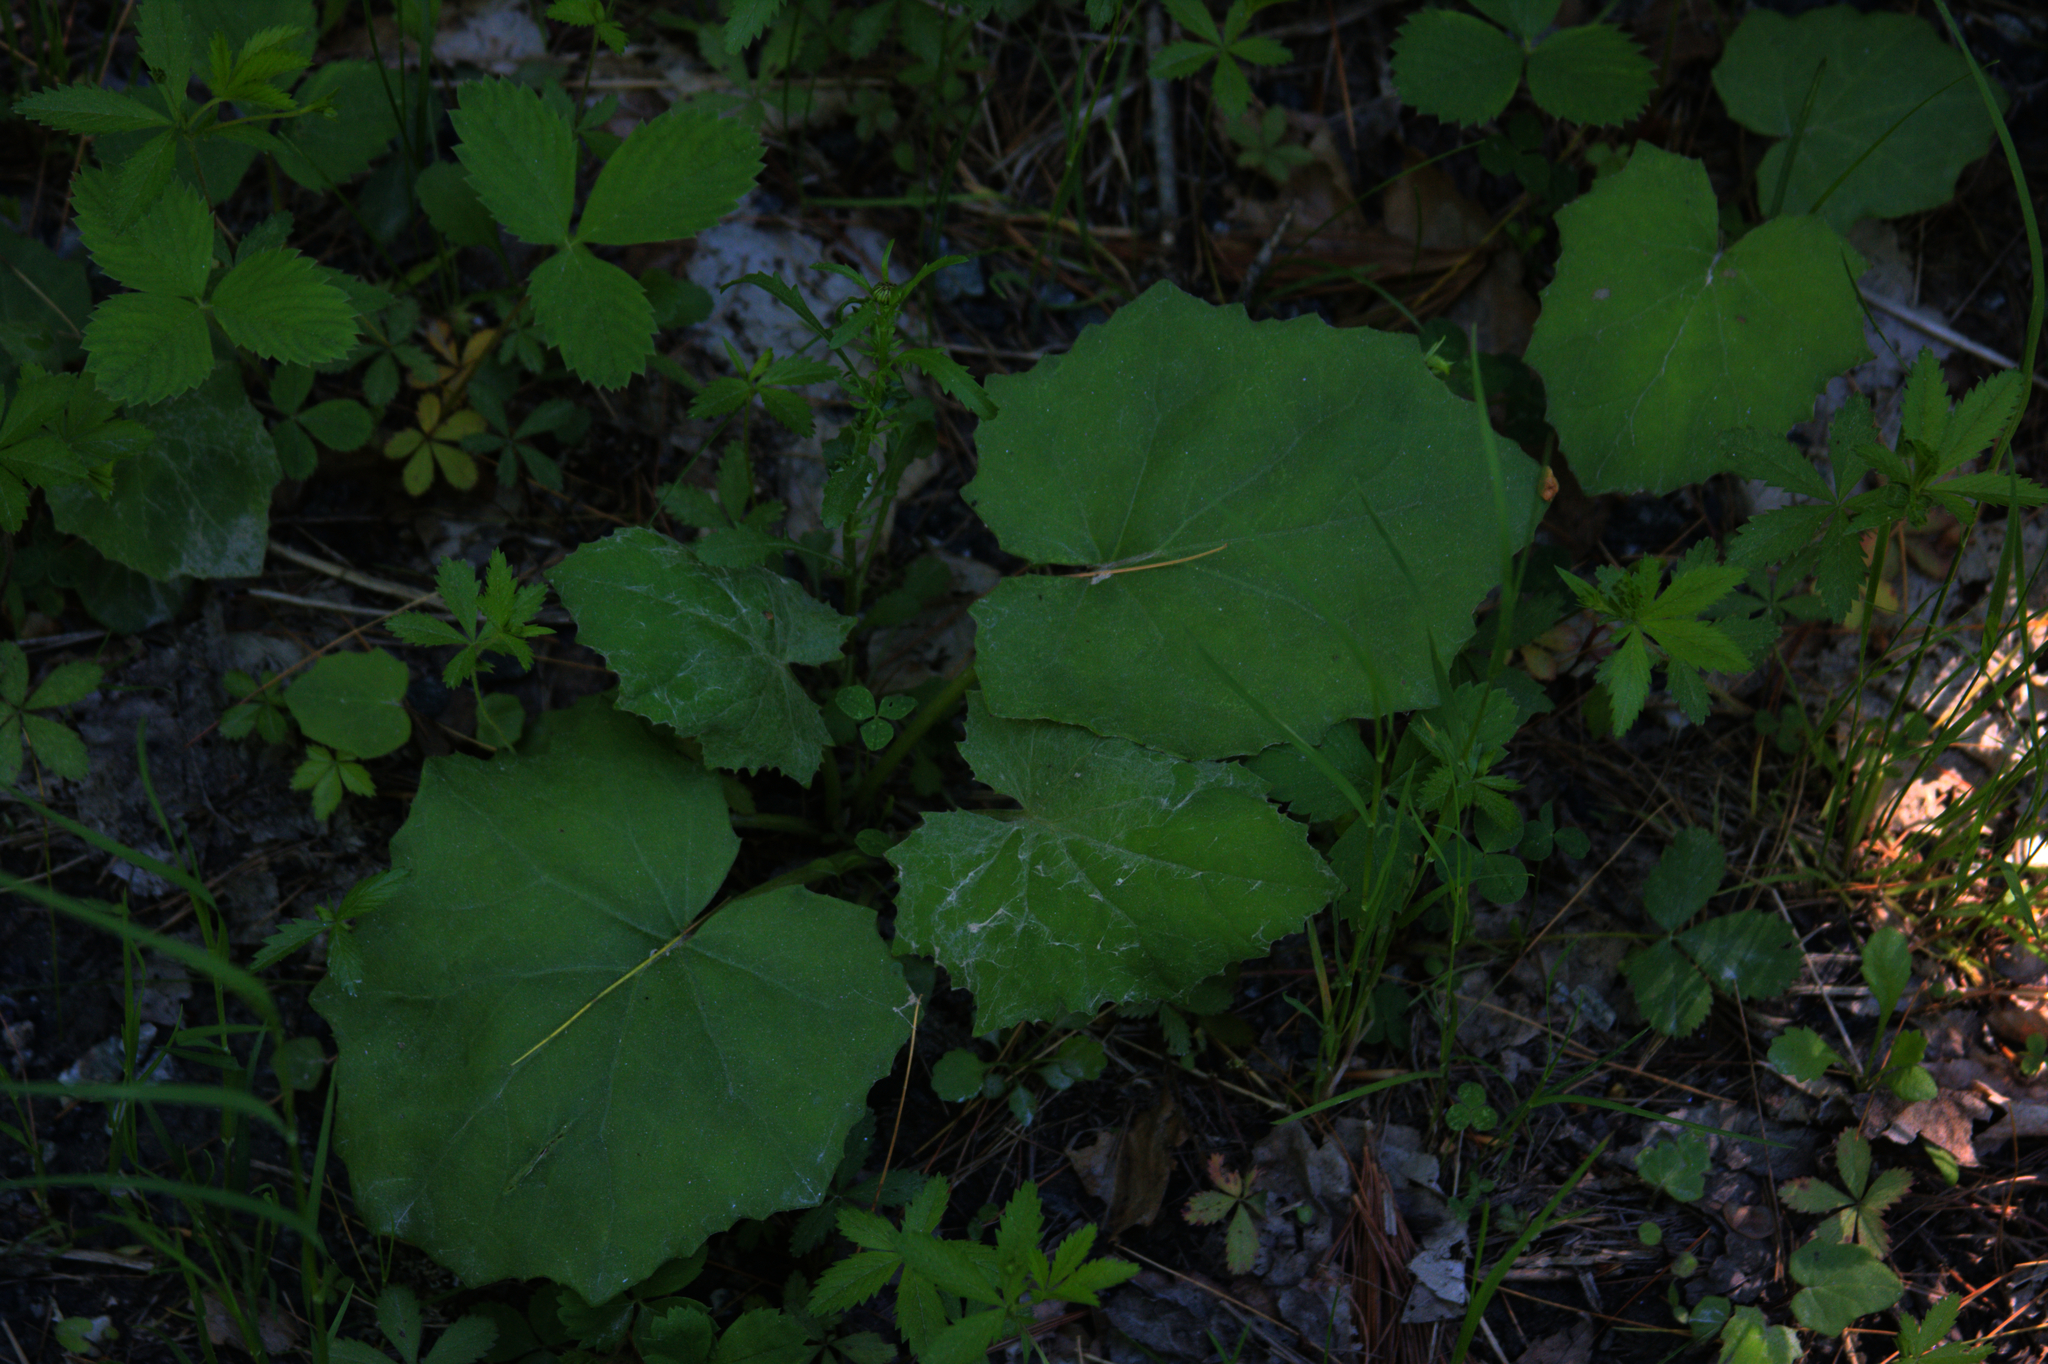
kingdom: Plantae
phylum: Tracheophyta
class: Magnoliopsida
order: Asterales
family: Asteraceae
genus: Tussilago
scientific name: Tussilago farfara
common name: Coltsfoot
